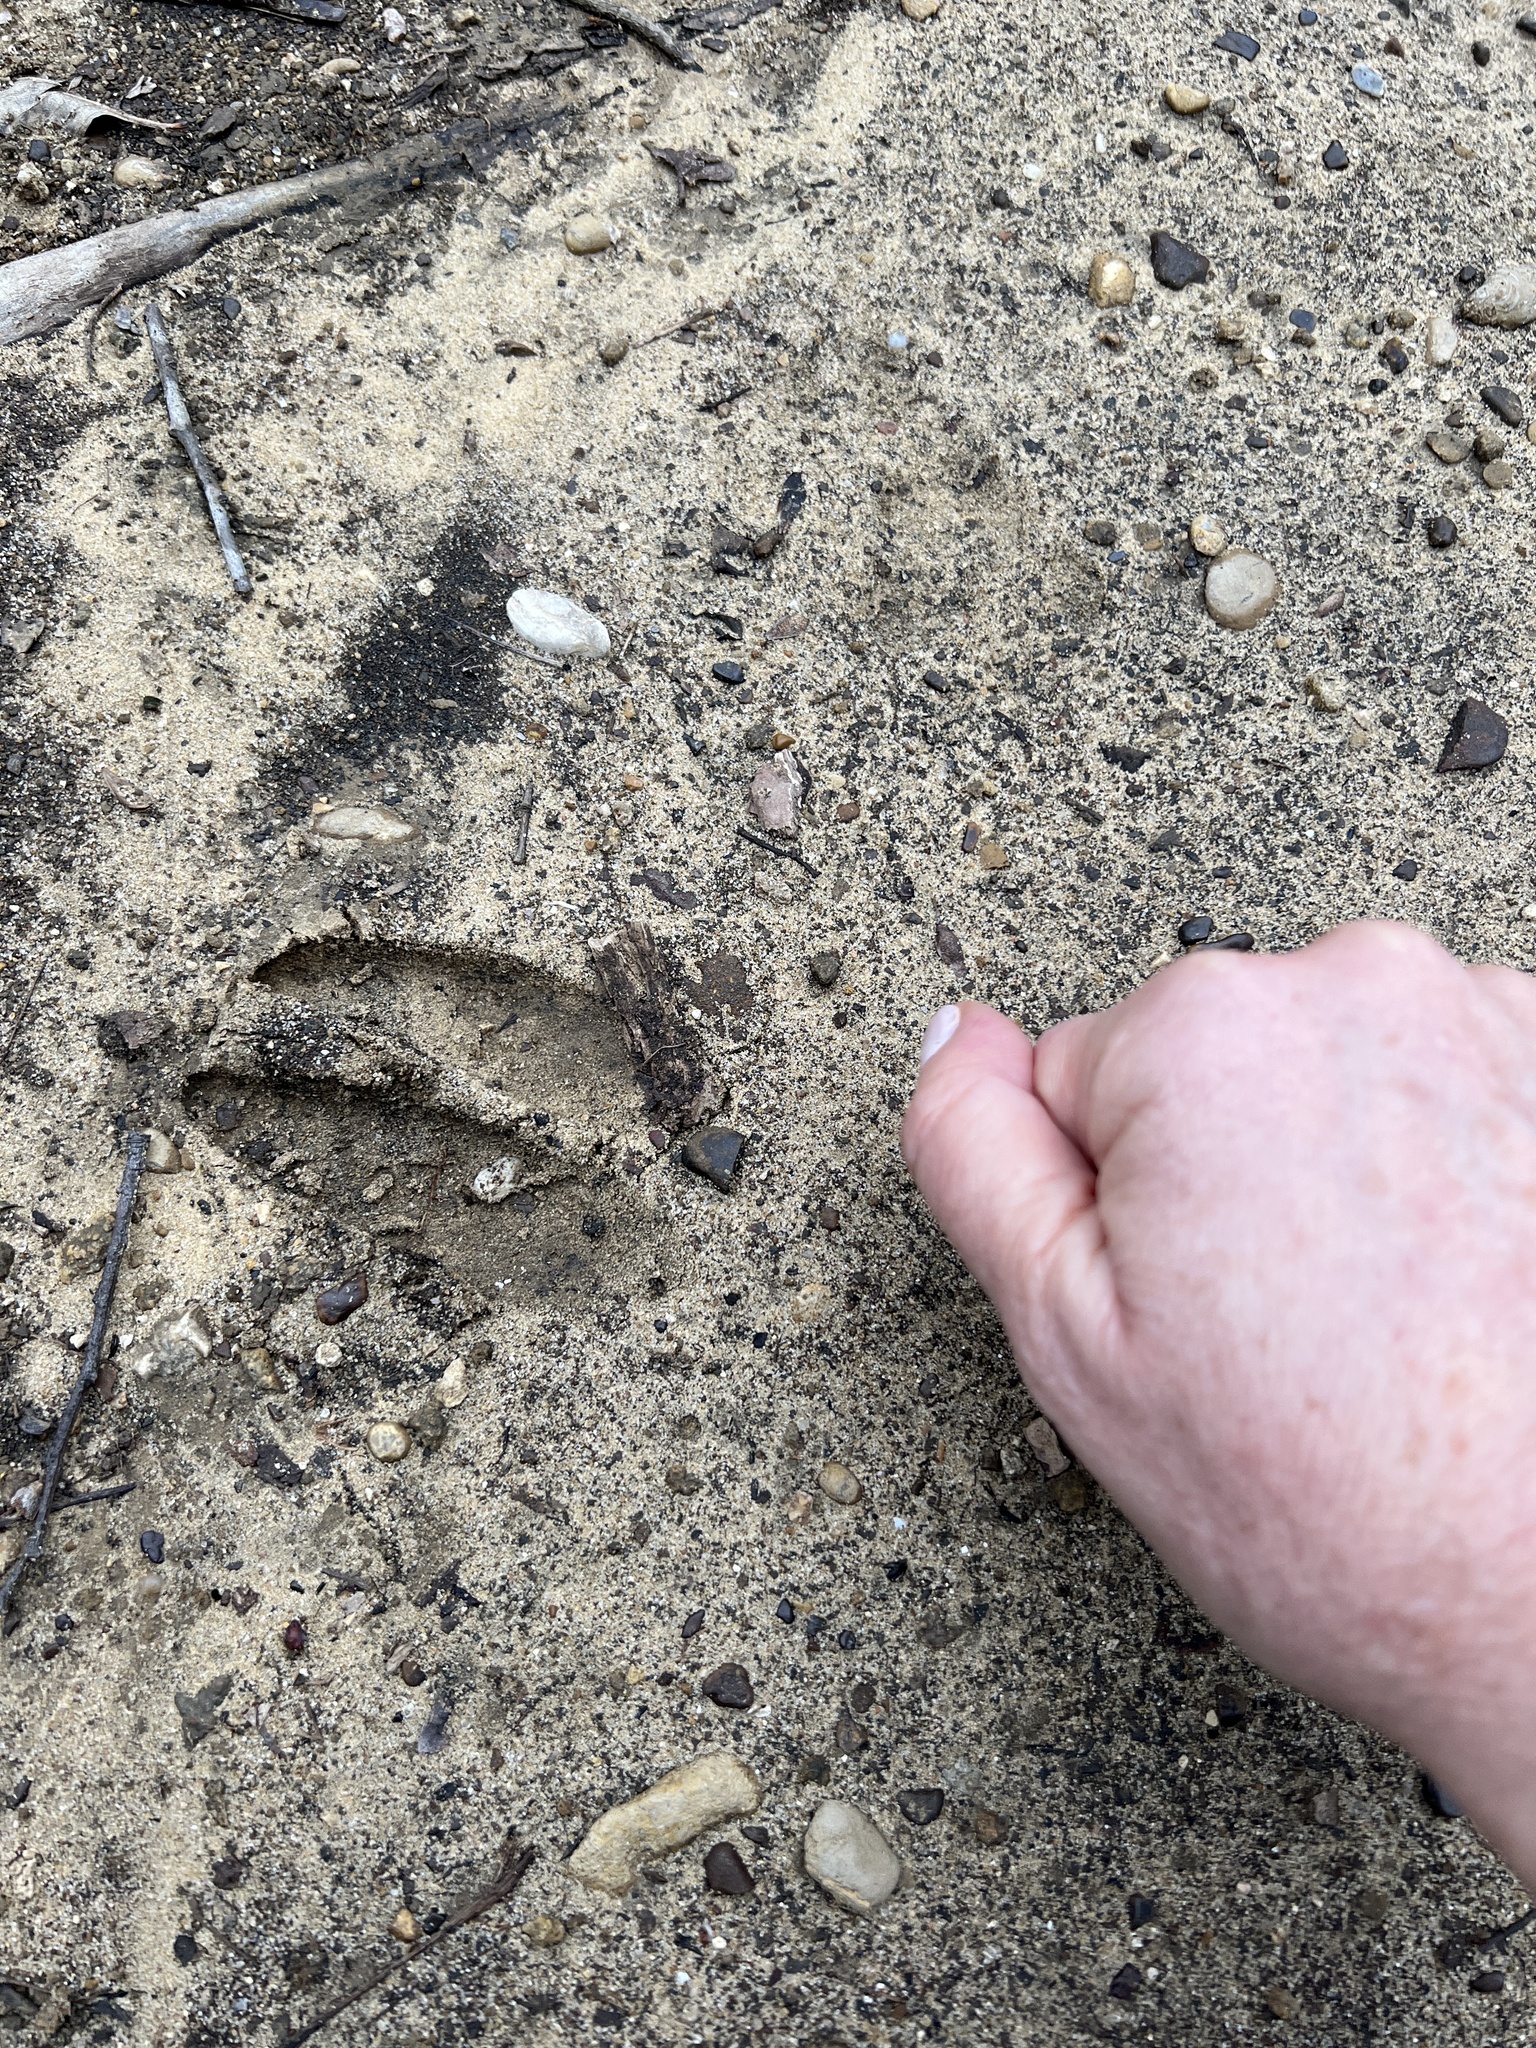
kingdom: Animalia
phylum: Chordata
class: Mammalia
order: Artiodactyla
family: Cervidae
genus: Odocoileus
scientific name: Odocoileus virginianus
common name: White-tailed deer
